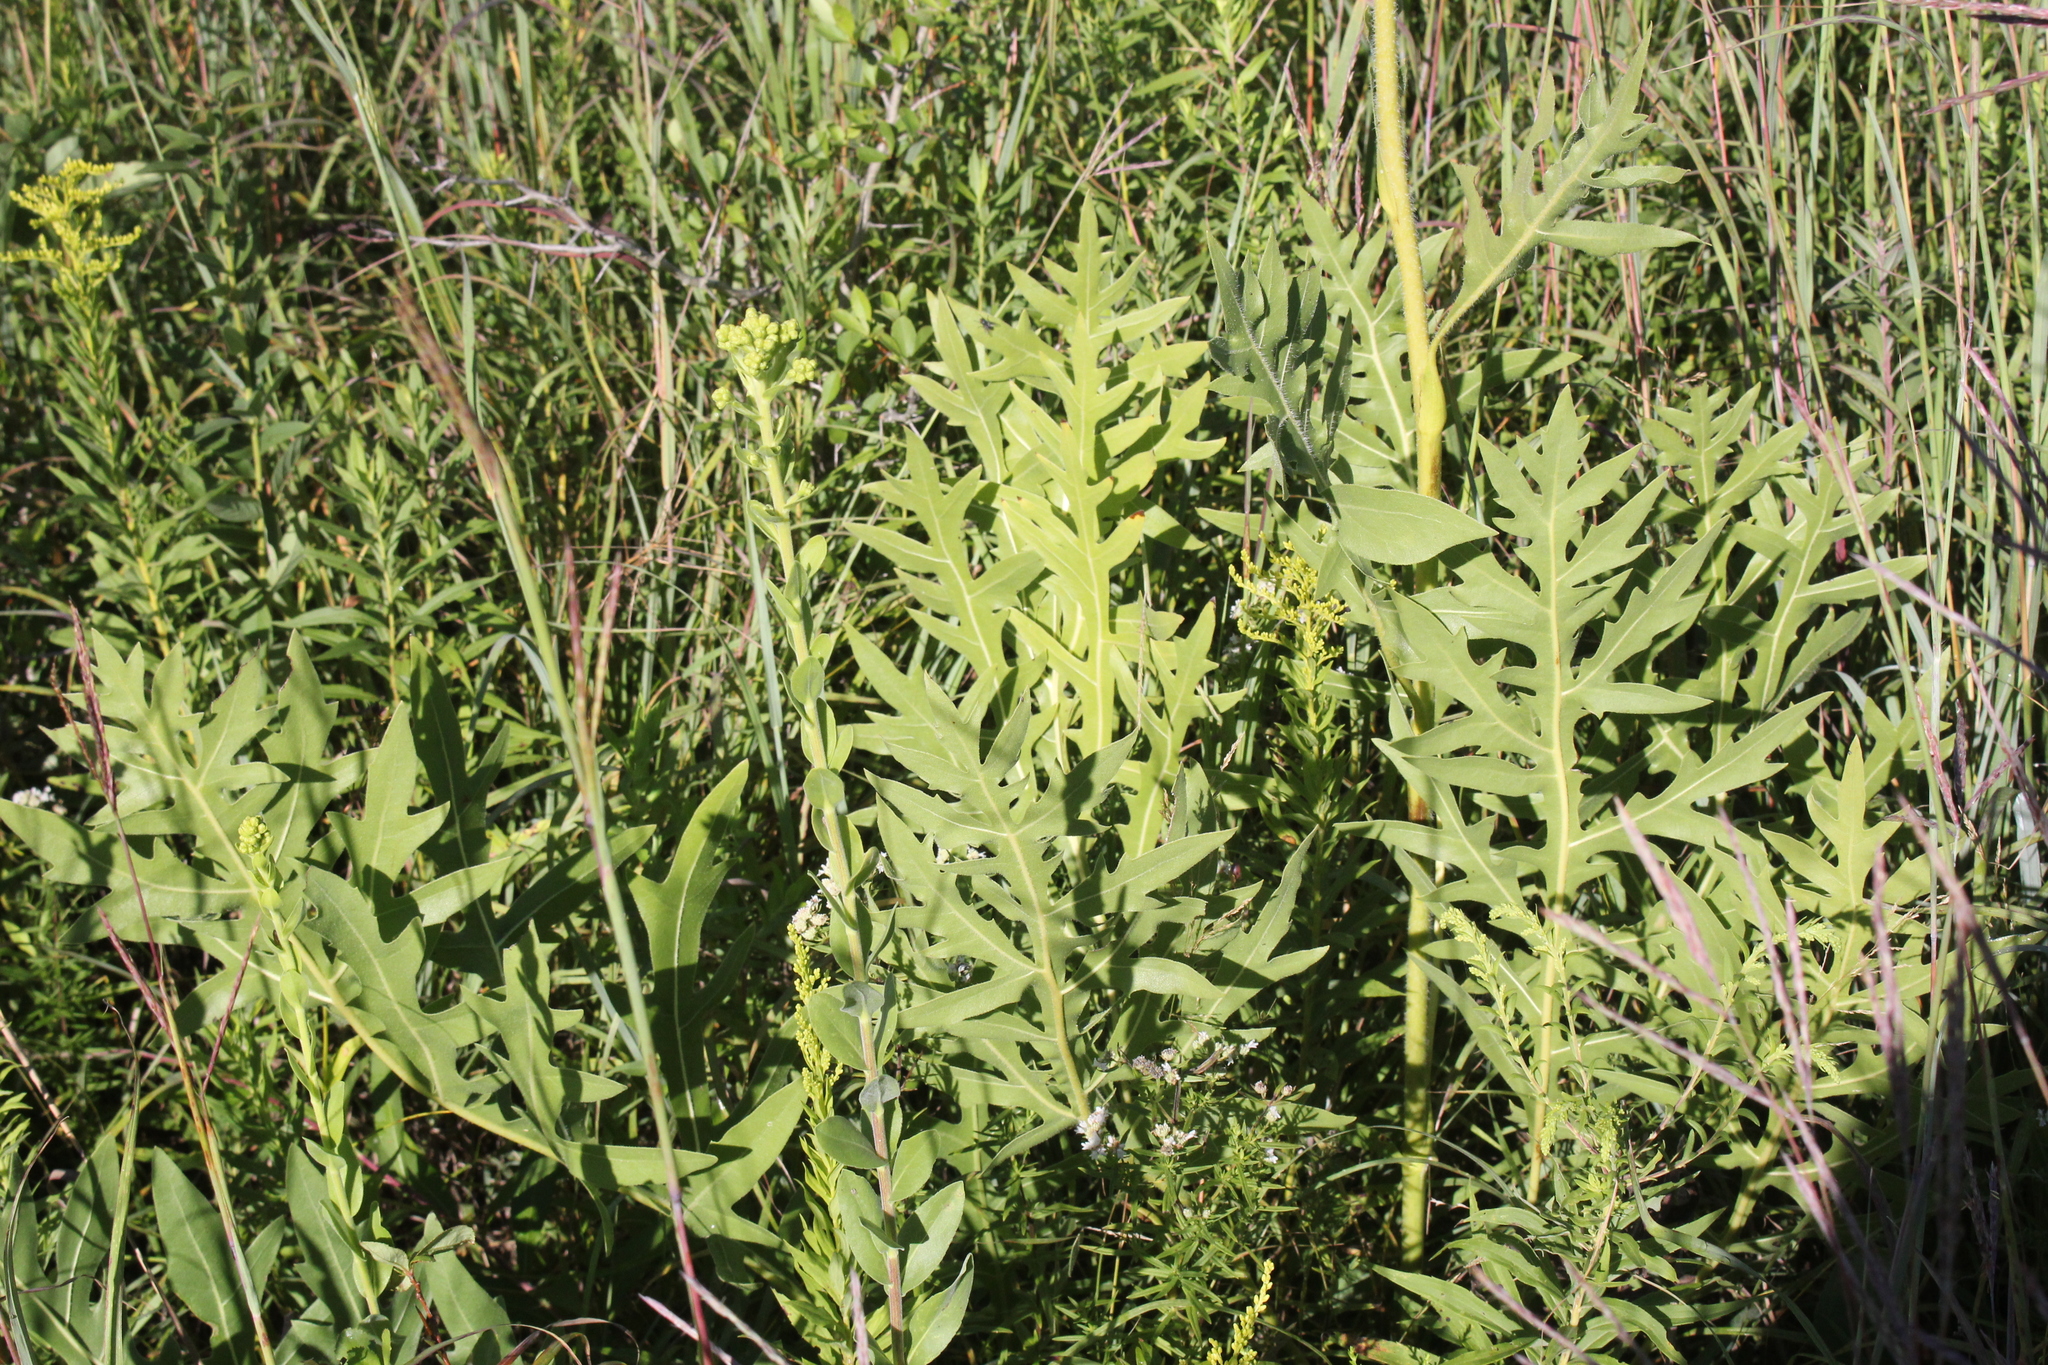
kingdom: Plantae
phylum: Tracheophyta
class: Magnoliopsida
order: Asterales
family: Asteraceae
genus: Silphium
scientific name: Silphium laciniatum
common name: Polarplant
